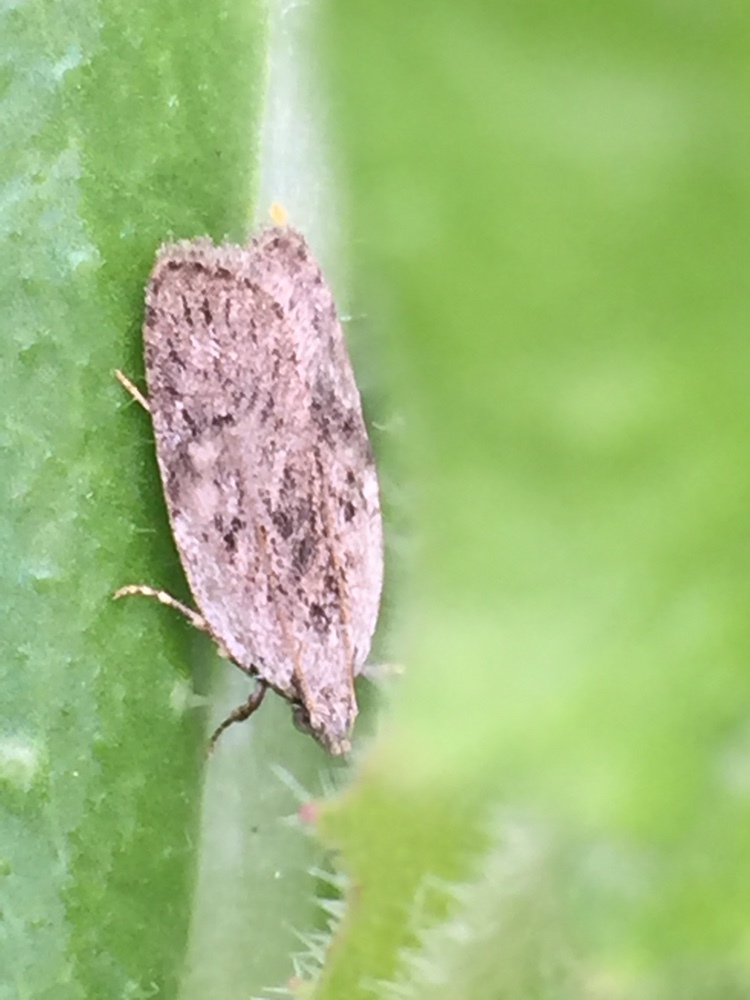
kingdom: Animalia
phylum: Arthropoda
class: Insecta
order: Lepidoptera
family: Depressariidae
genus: Phaeosaces
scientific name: Phaeosaces compsotypa
